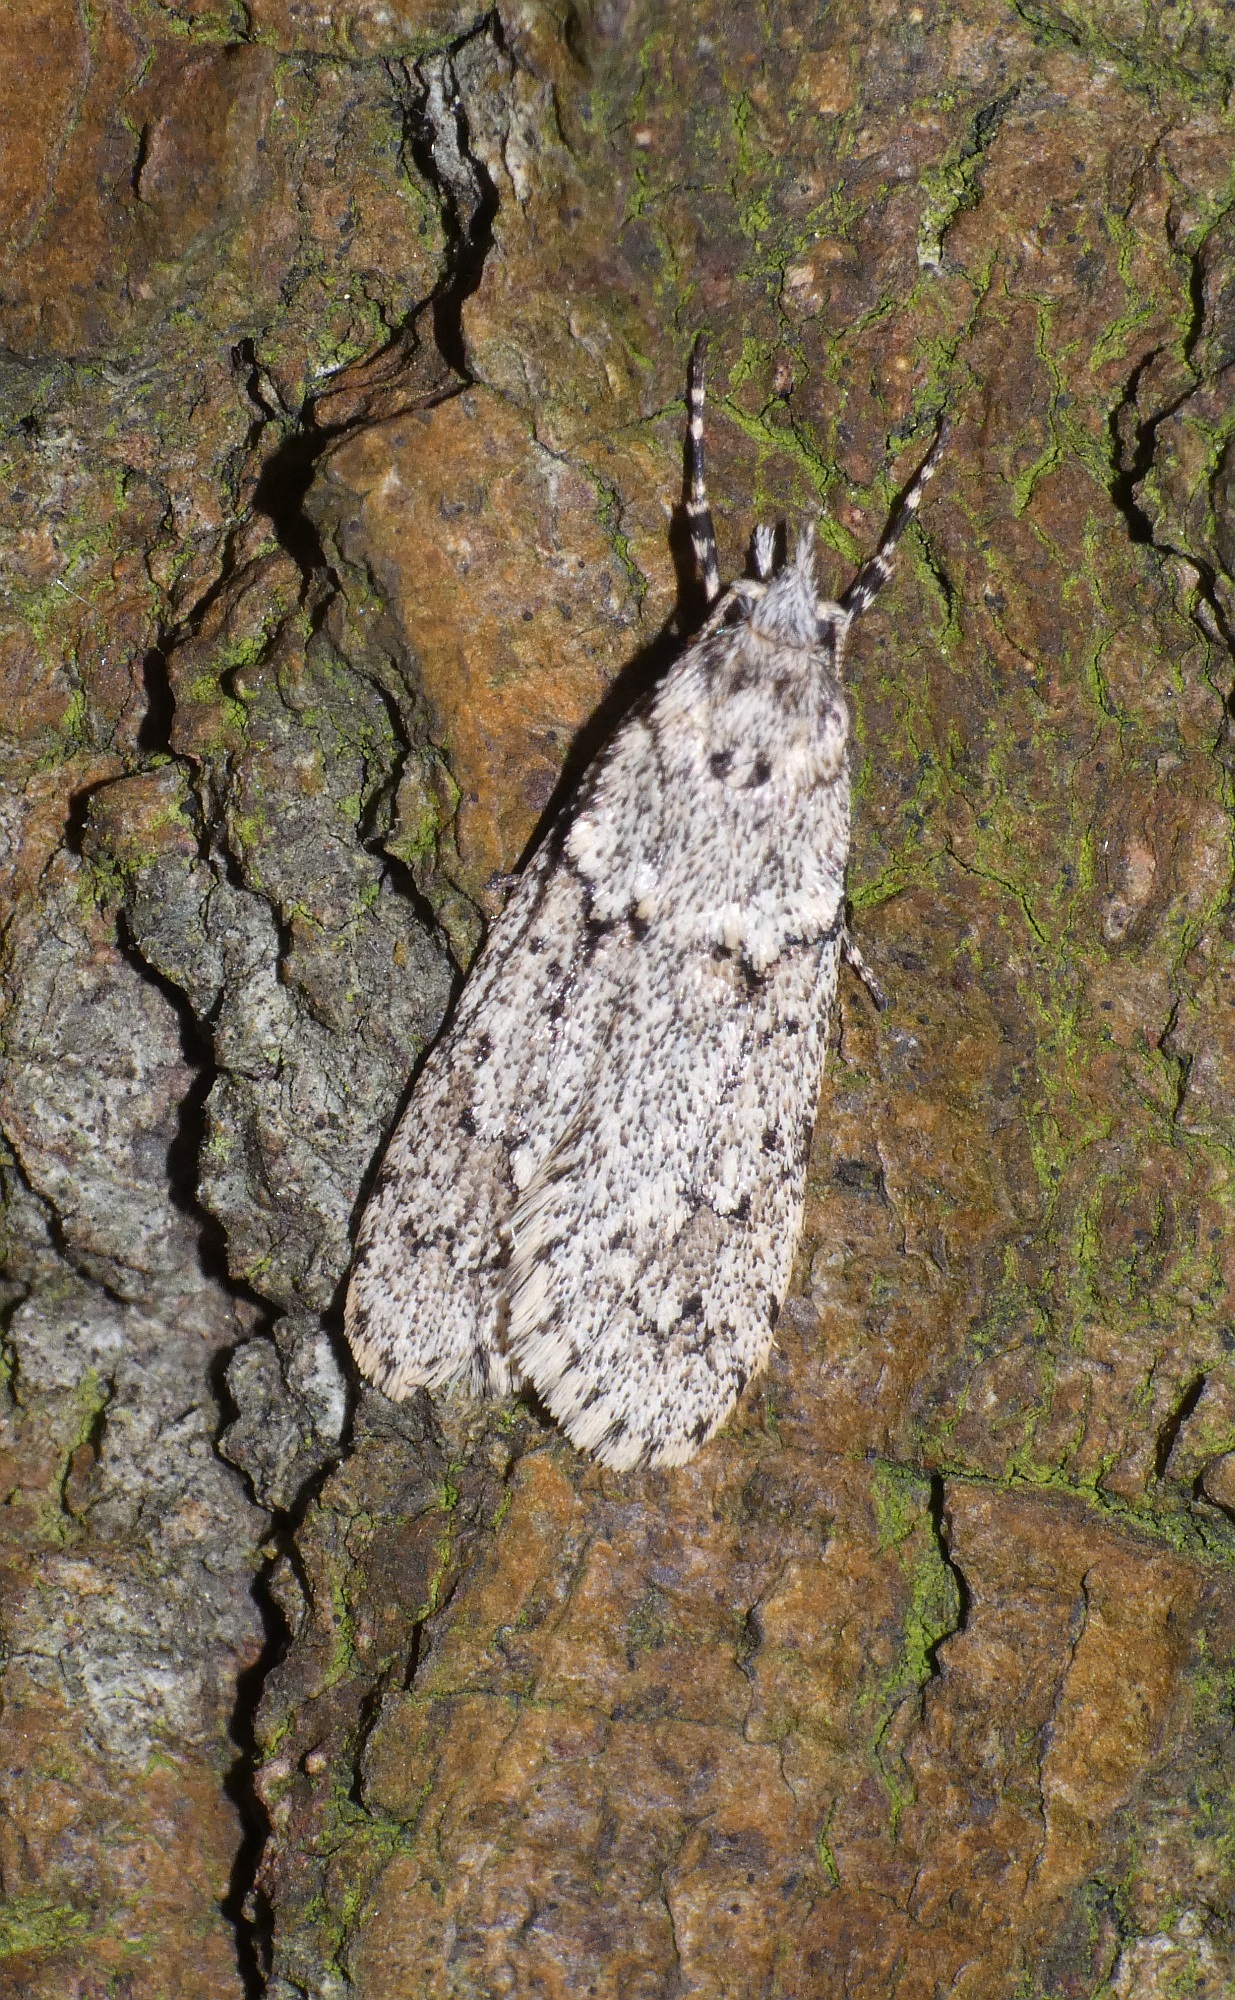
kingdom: Animalia
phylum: Arthropoda
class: Insecta
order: Lepidoptera
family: Lypusidae
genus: Diurnea
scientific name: Diurnea fagella
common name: March tubic
